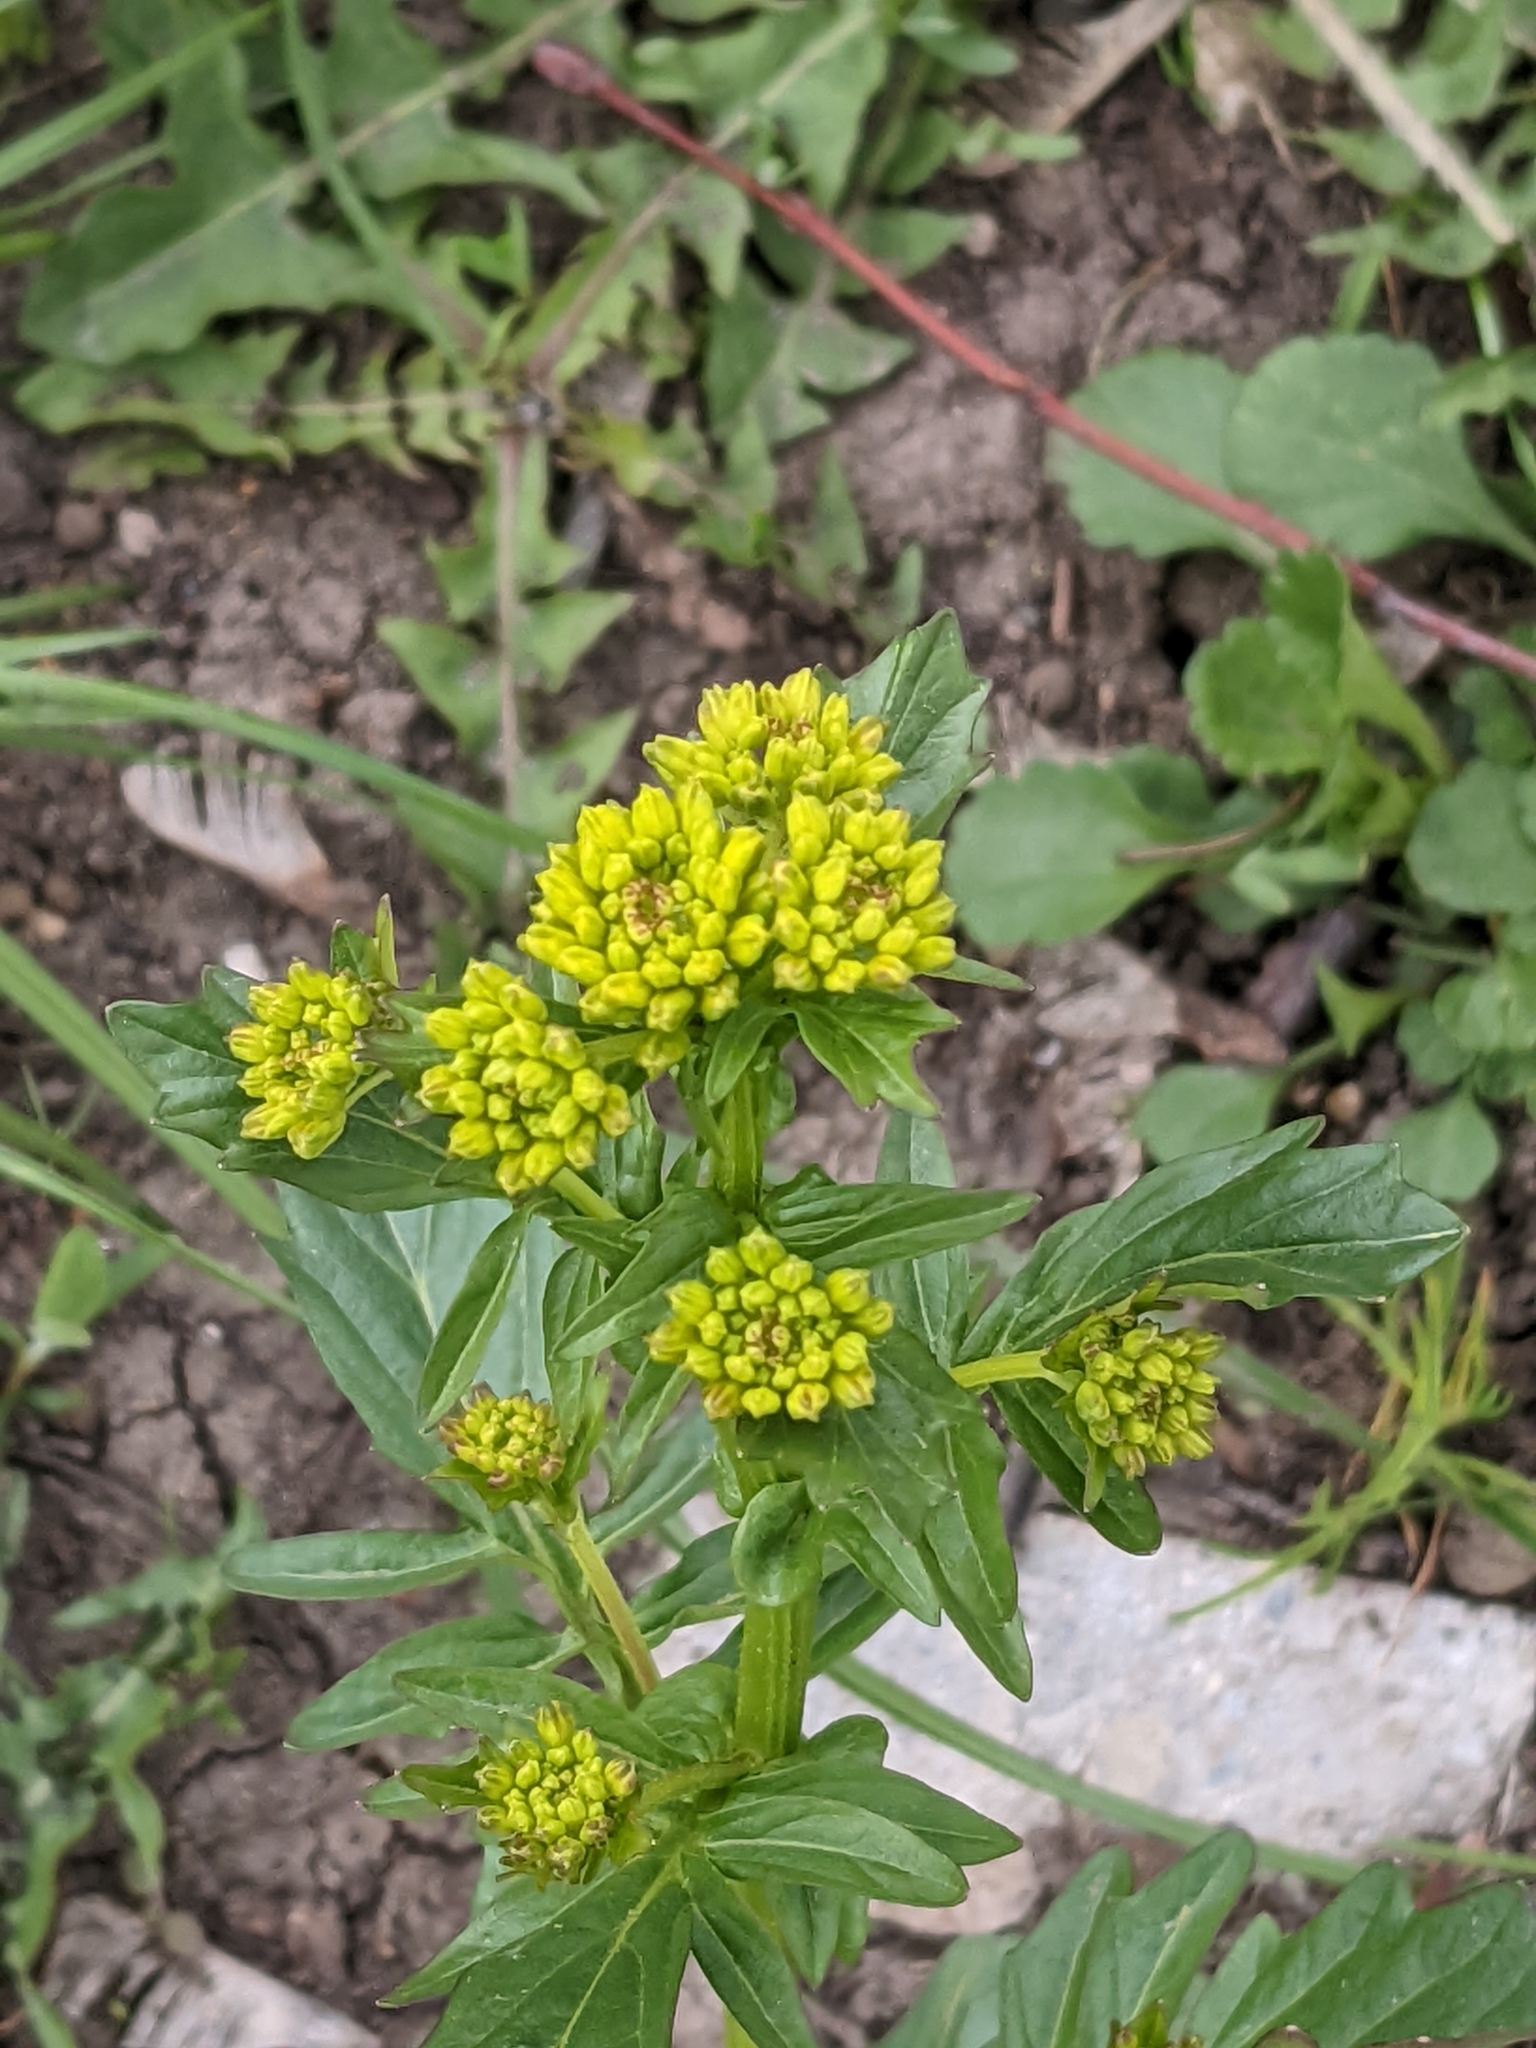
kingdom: Plantae
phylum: Tracheophyta
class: Magnoliopsida
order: Brassicales
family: Brassicaceae
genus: Barbarea
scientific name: Barbarea vulgaris
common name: Cressy-greens
